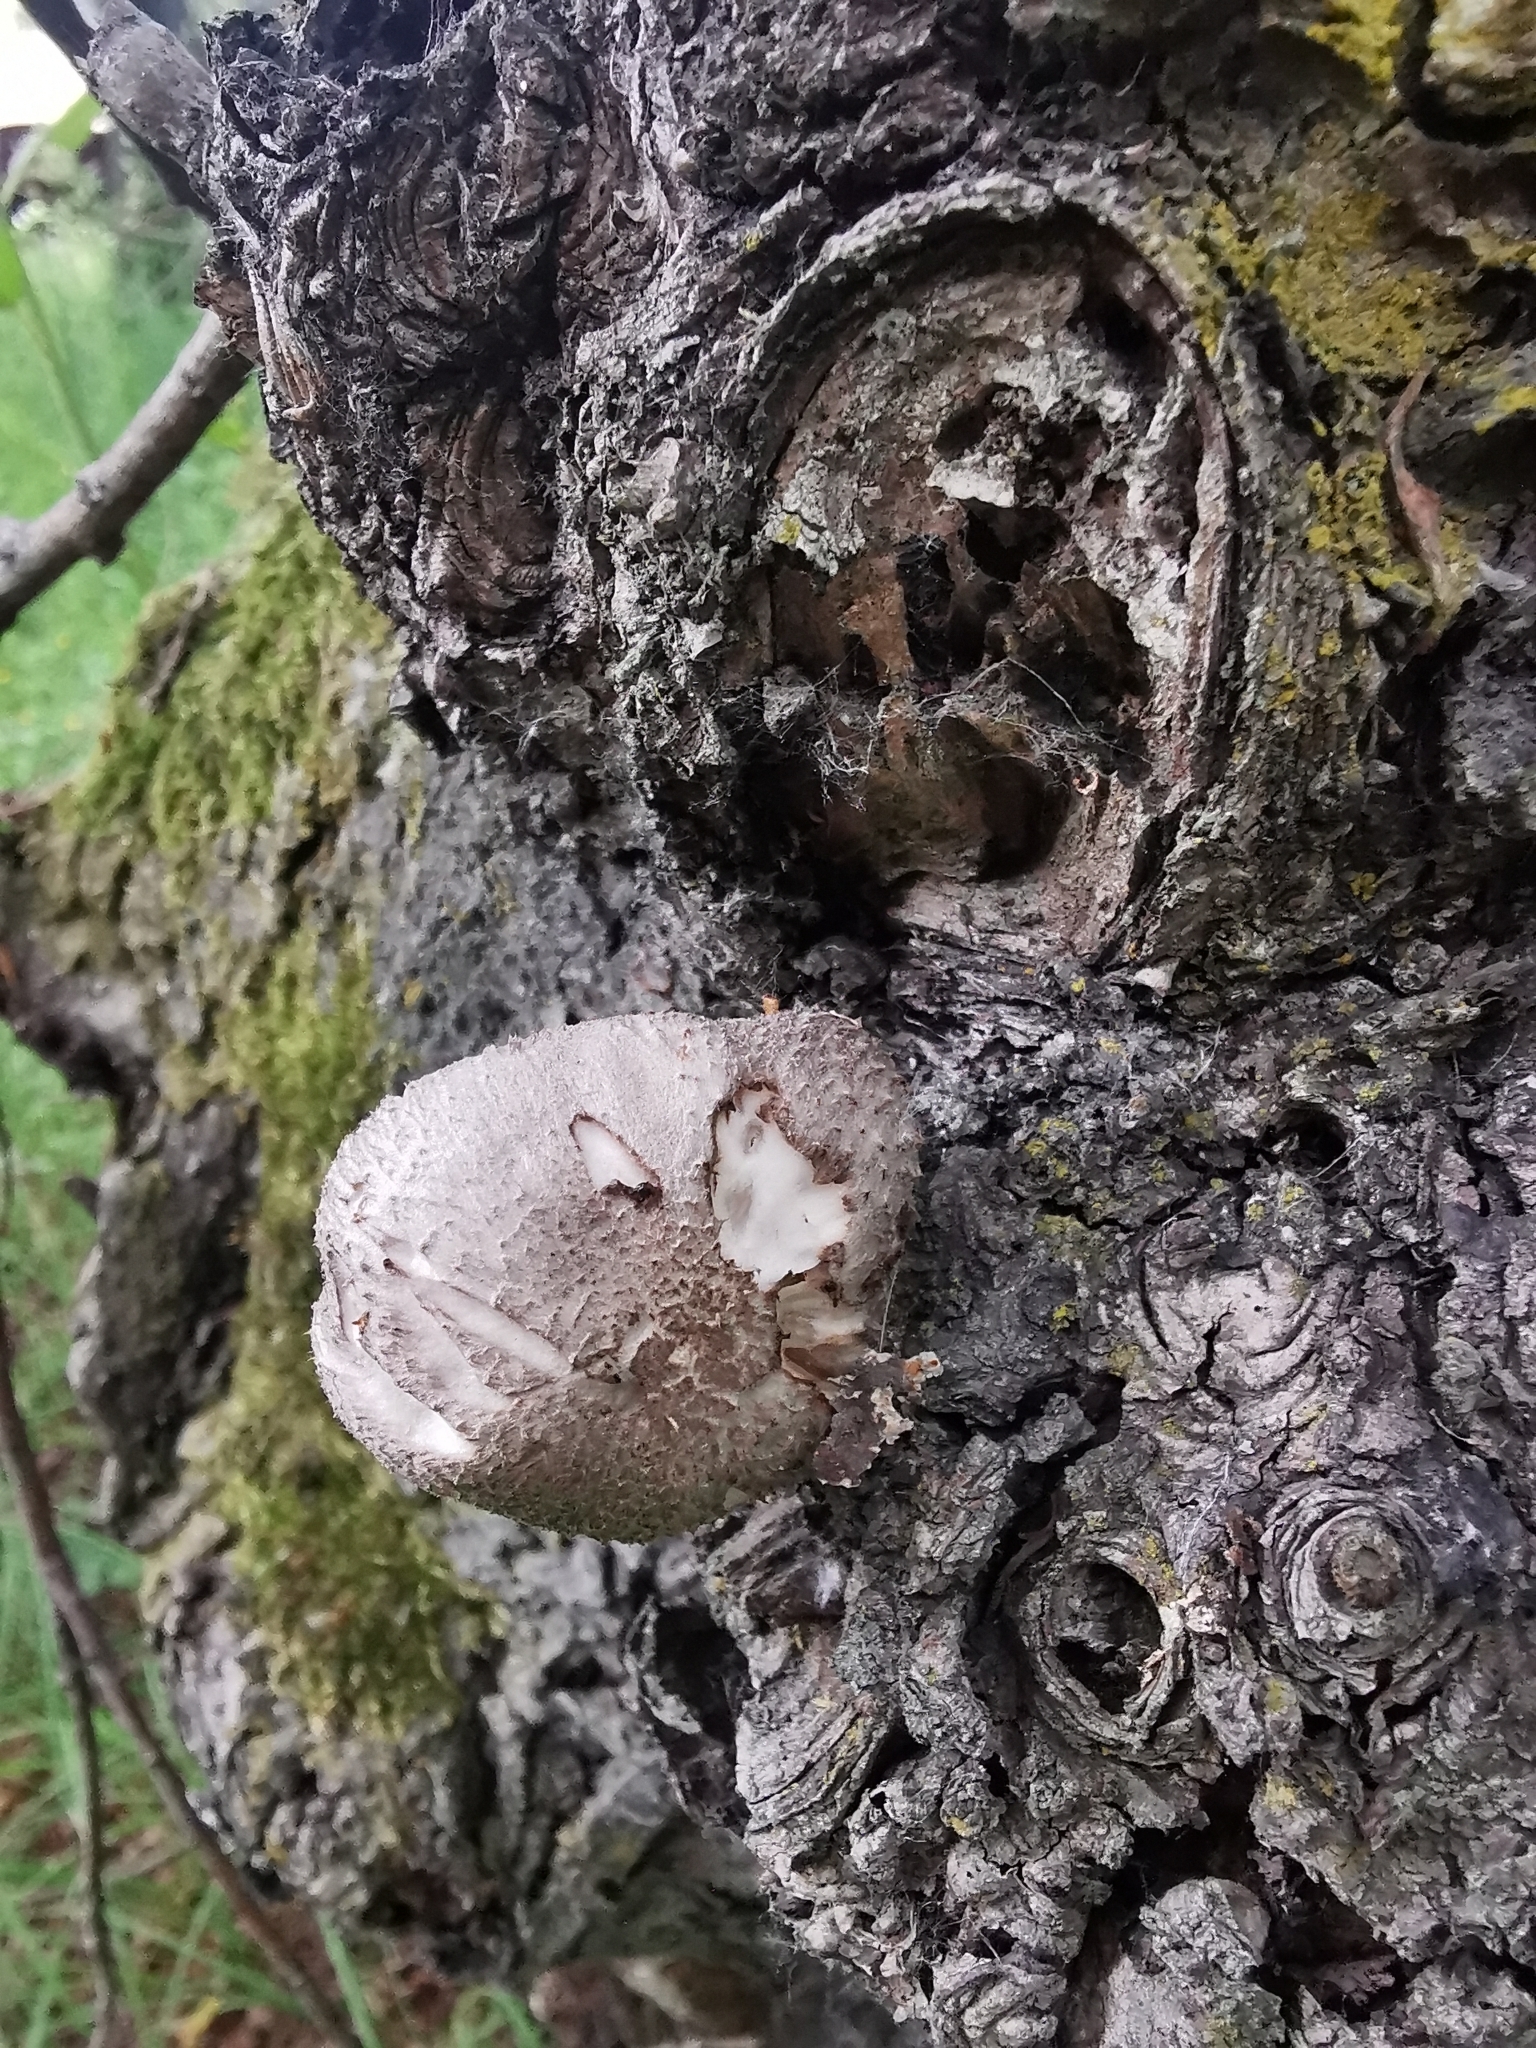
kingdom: Fungi
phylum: Basidiomycota
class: Agaricomycetes
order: Agaricales
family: Strophariaceae
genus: Pholiota
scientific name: Pholiota populnea
